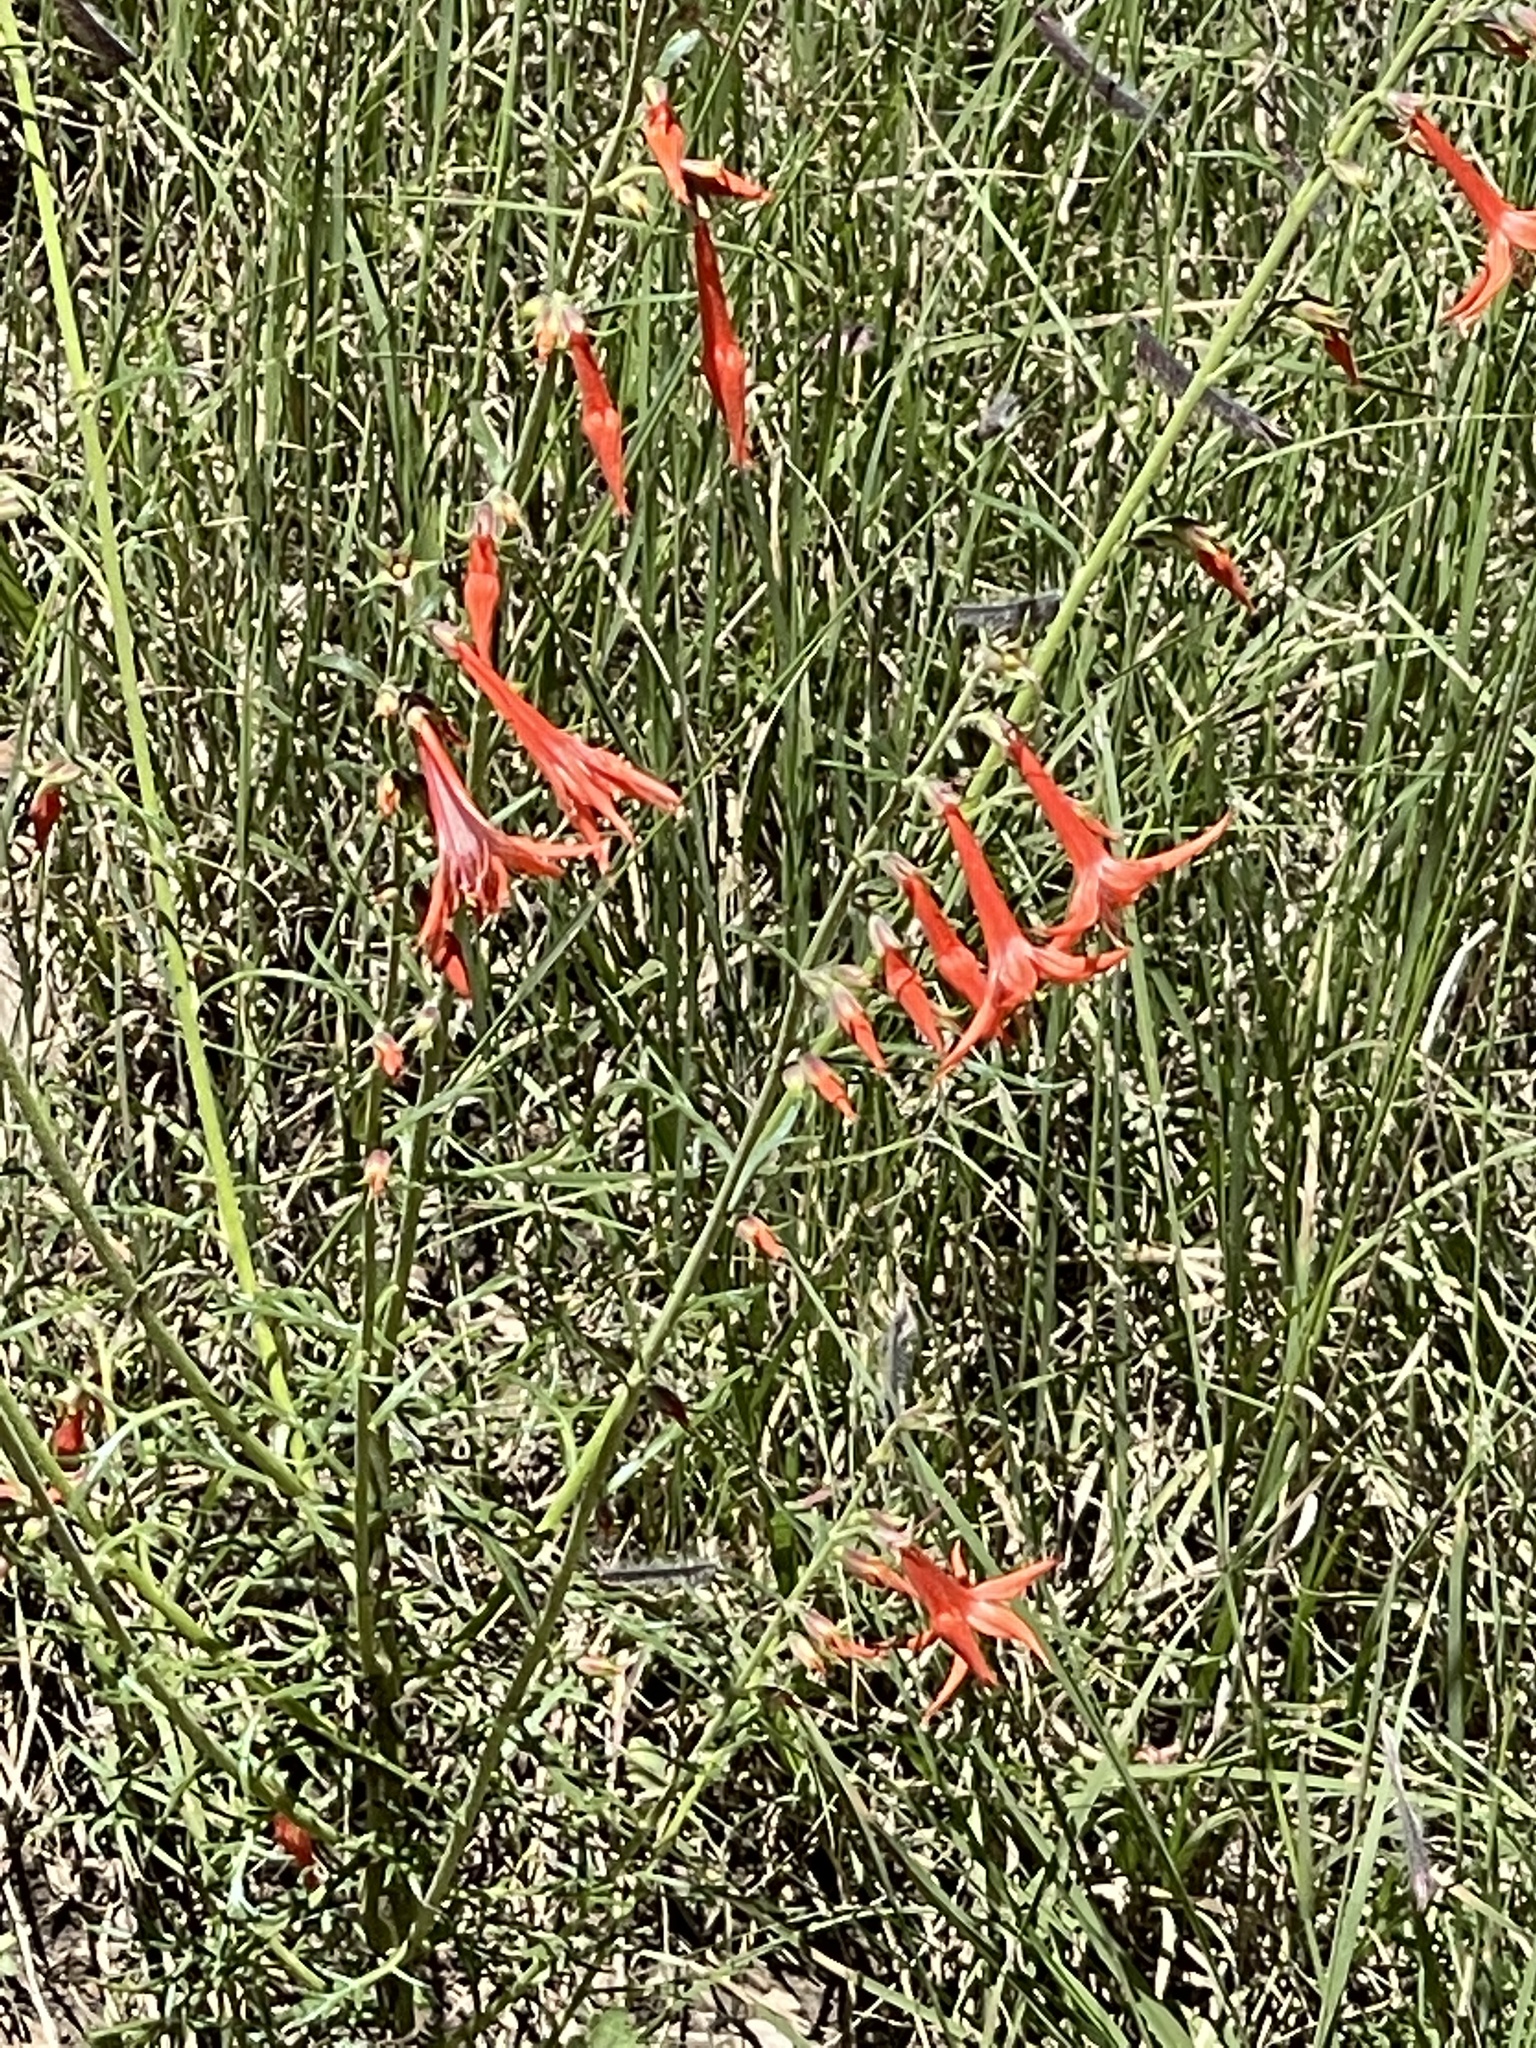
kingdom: Plantae
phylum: Tracheophyta
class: Magnoliopsida
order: Ericales
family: Polemoniaceae
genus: Ipomopsis
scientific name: Ipomopsis aggregata
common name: Scarlet gilia
